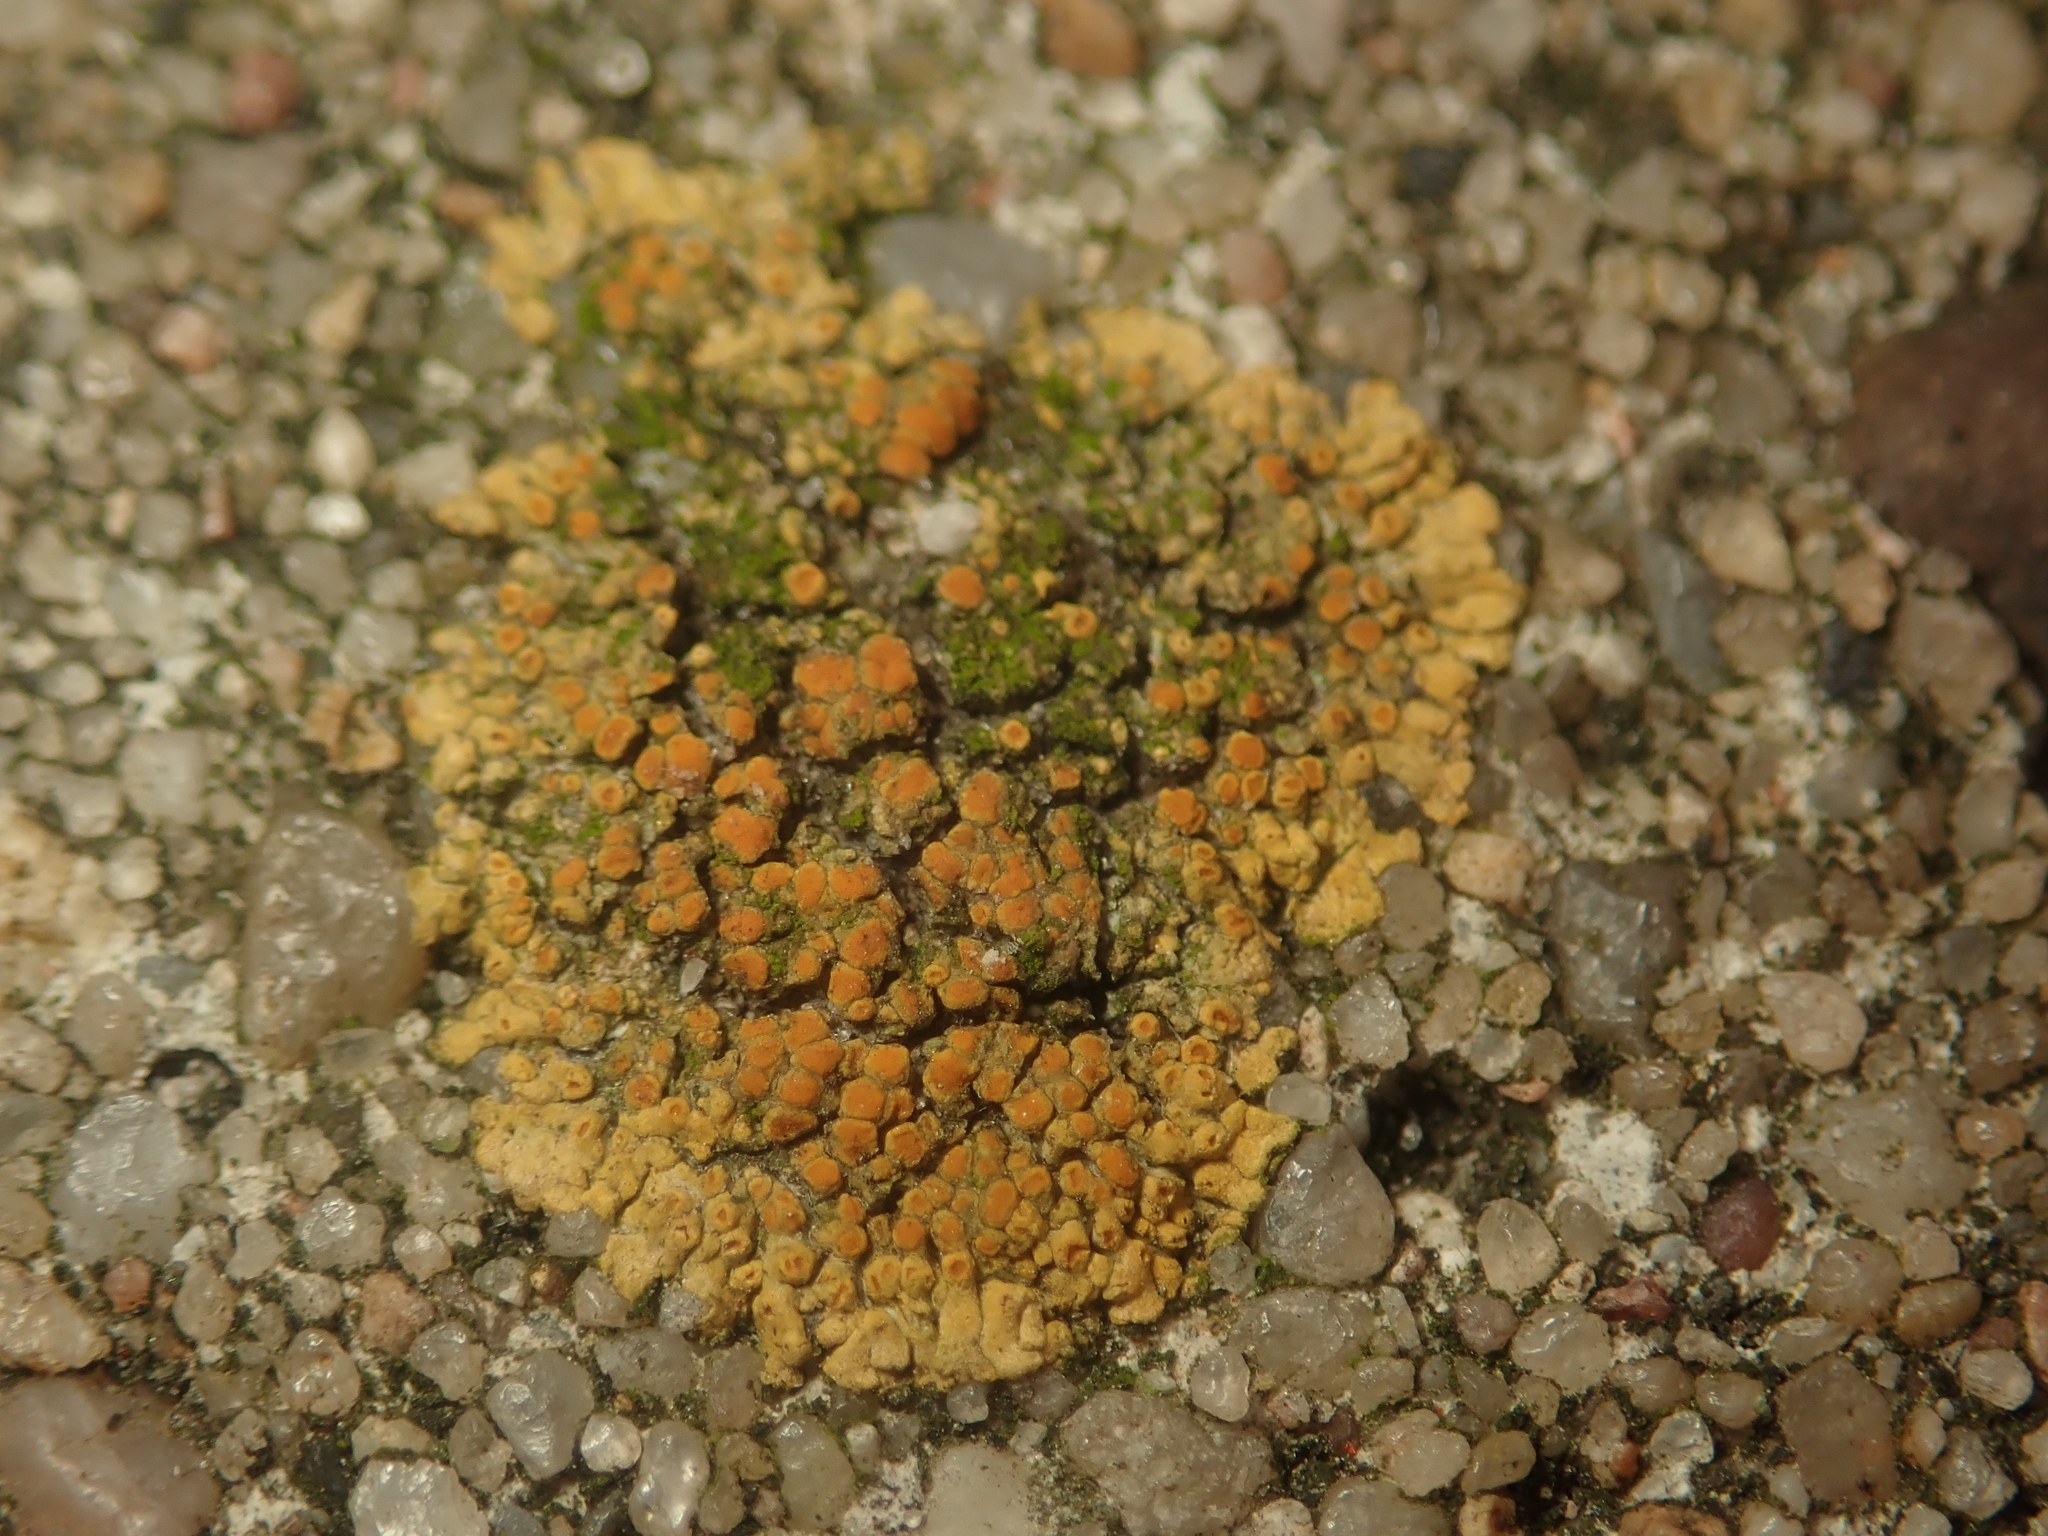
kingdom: Fungi
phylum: Ascomycota
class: Lecanoromycetes
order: Teloschistales
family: Teloschistaceae
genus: Calogaya
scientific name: Calogaya decipiens
